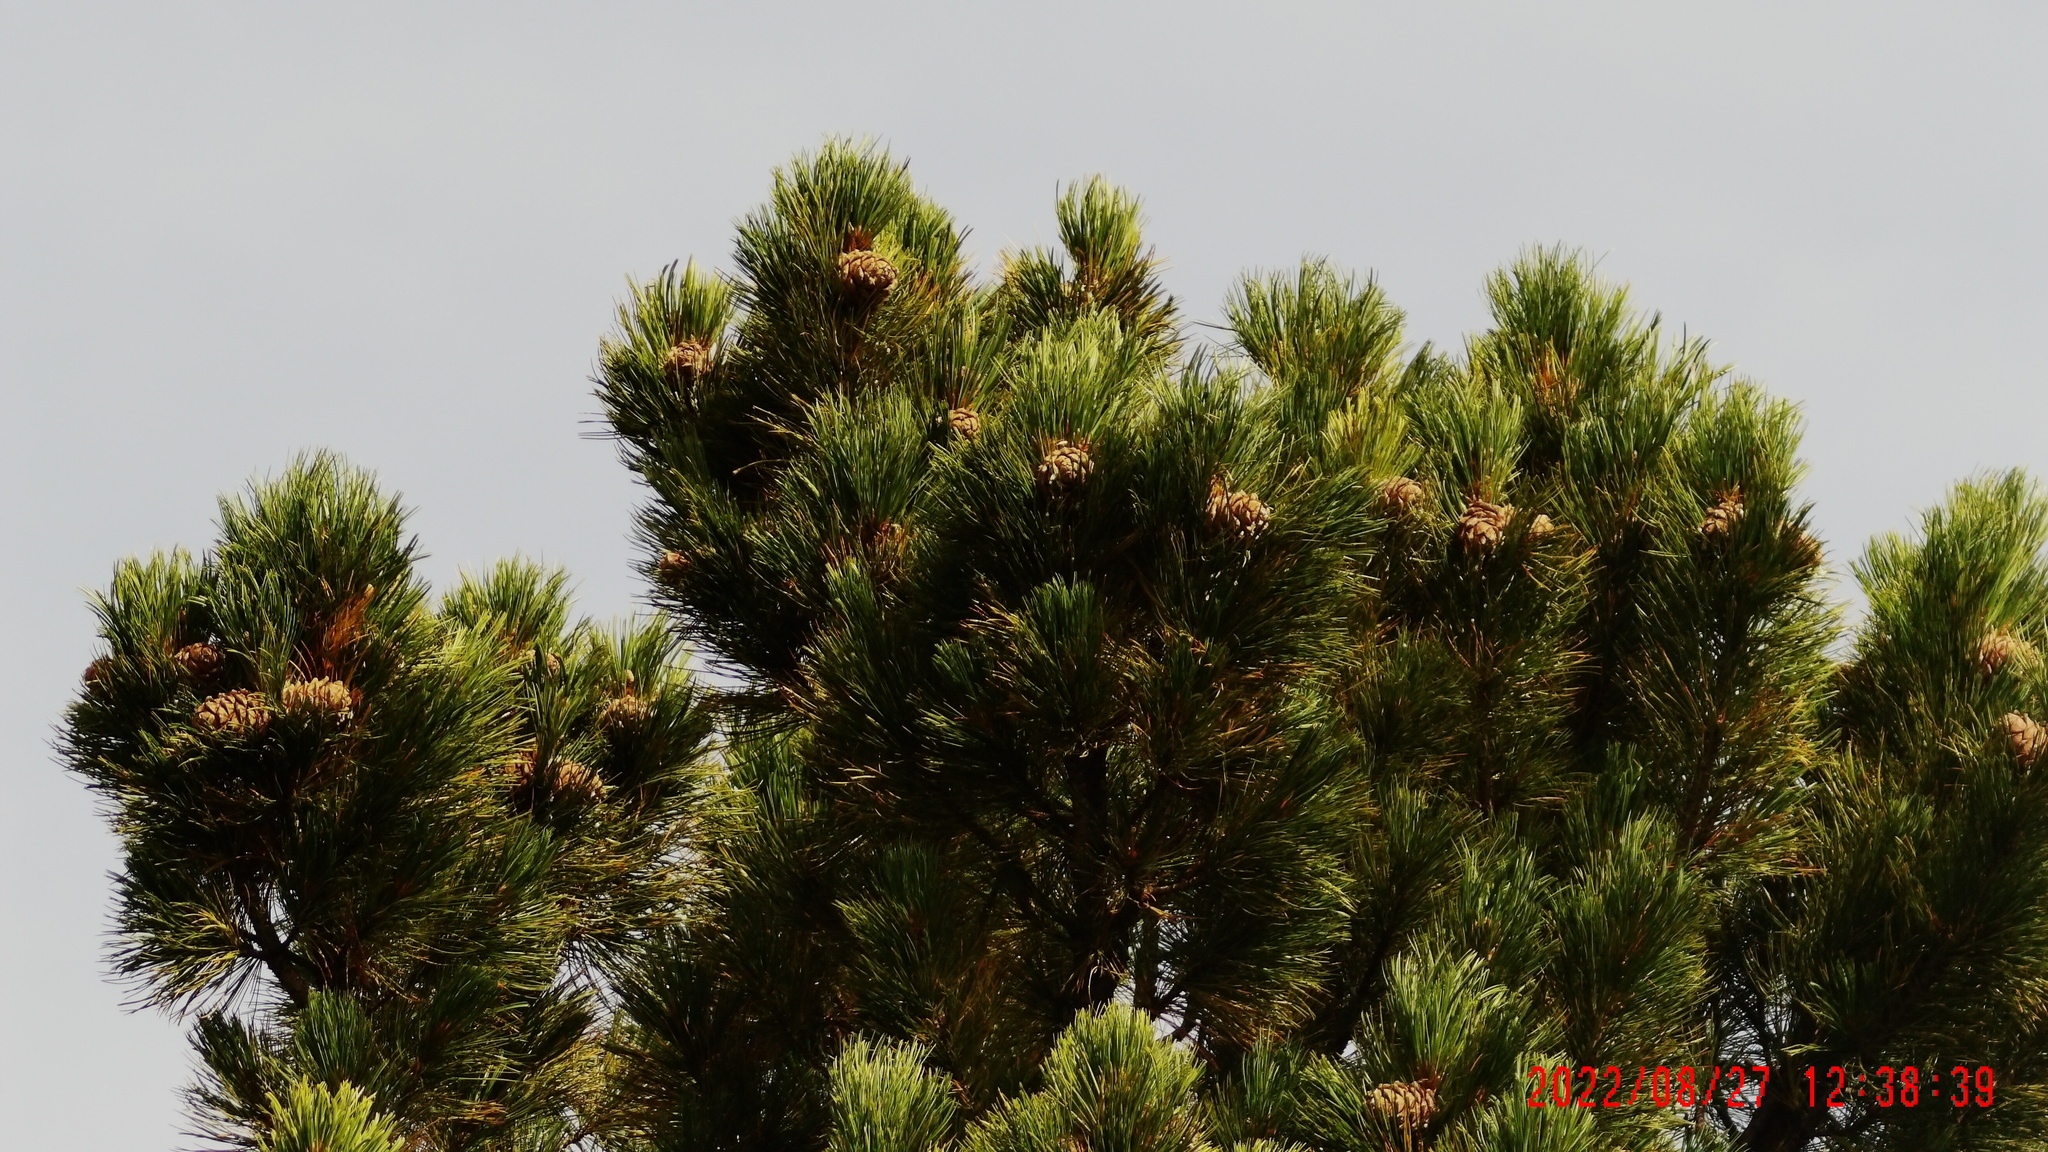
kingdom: Plantae
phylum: Tracheophyta
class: Pinopsida
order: Pinales
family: Pinaceae
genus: Pinus
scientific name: Pinus sibirica
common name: Siberian pine
